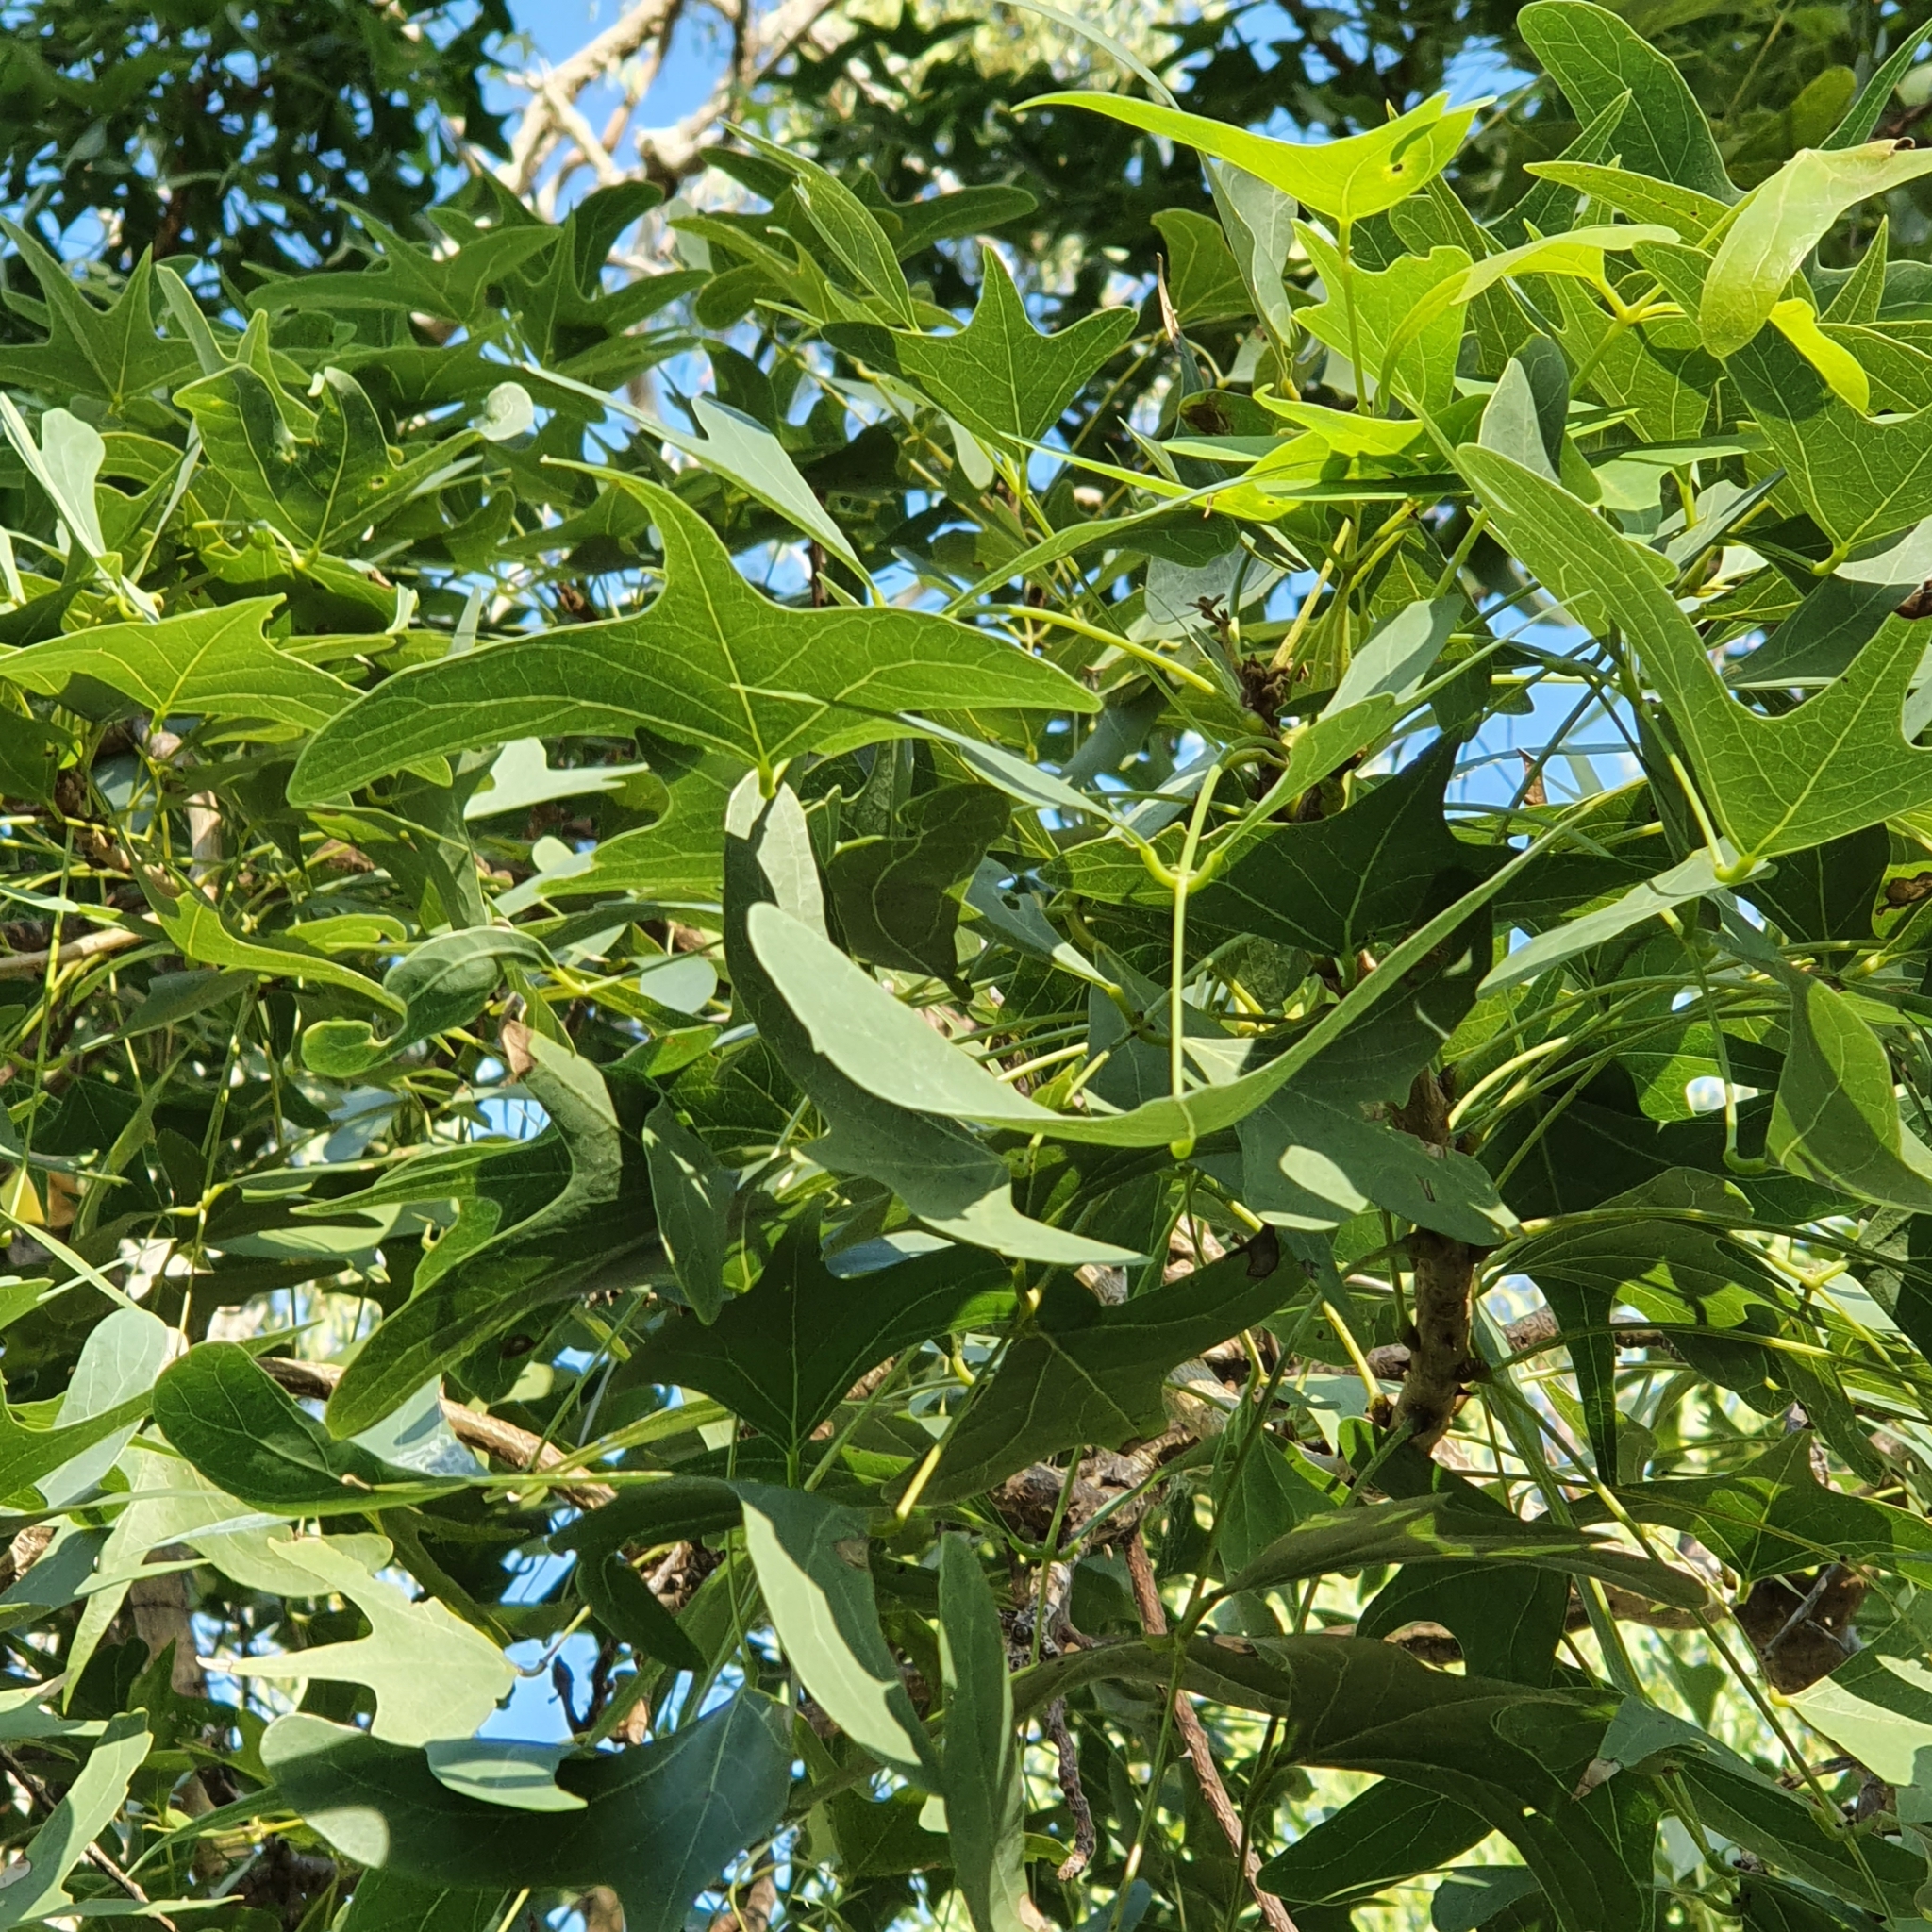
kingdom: Plantae
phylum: Tracheophyta
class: Magnoliopsida
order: Fabales
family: Fabaceae
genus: Erythrina
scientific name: Erythrina vespertilio
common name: Bat-wing coral tree
